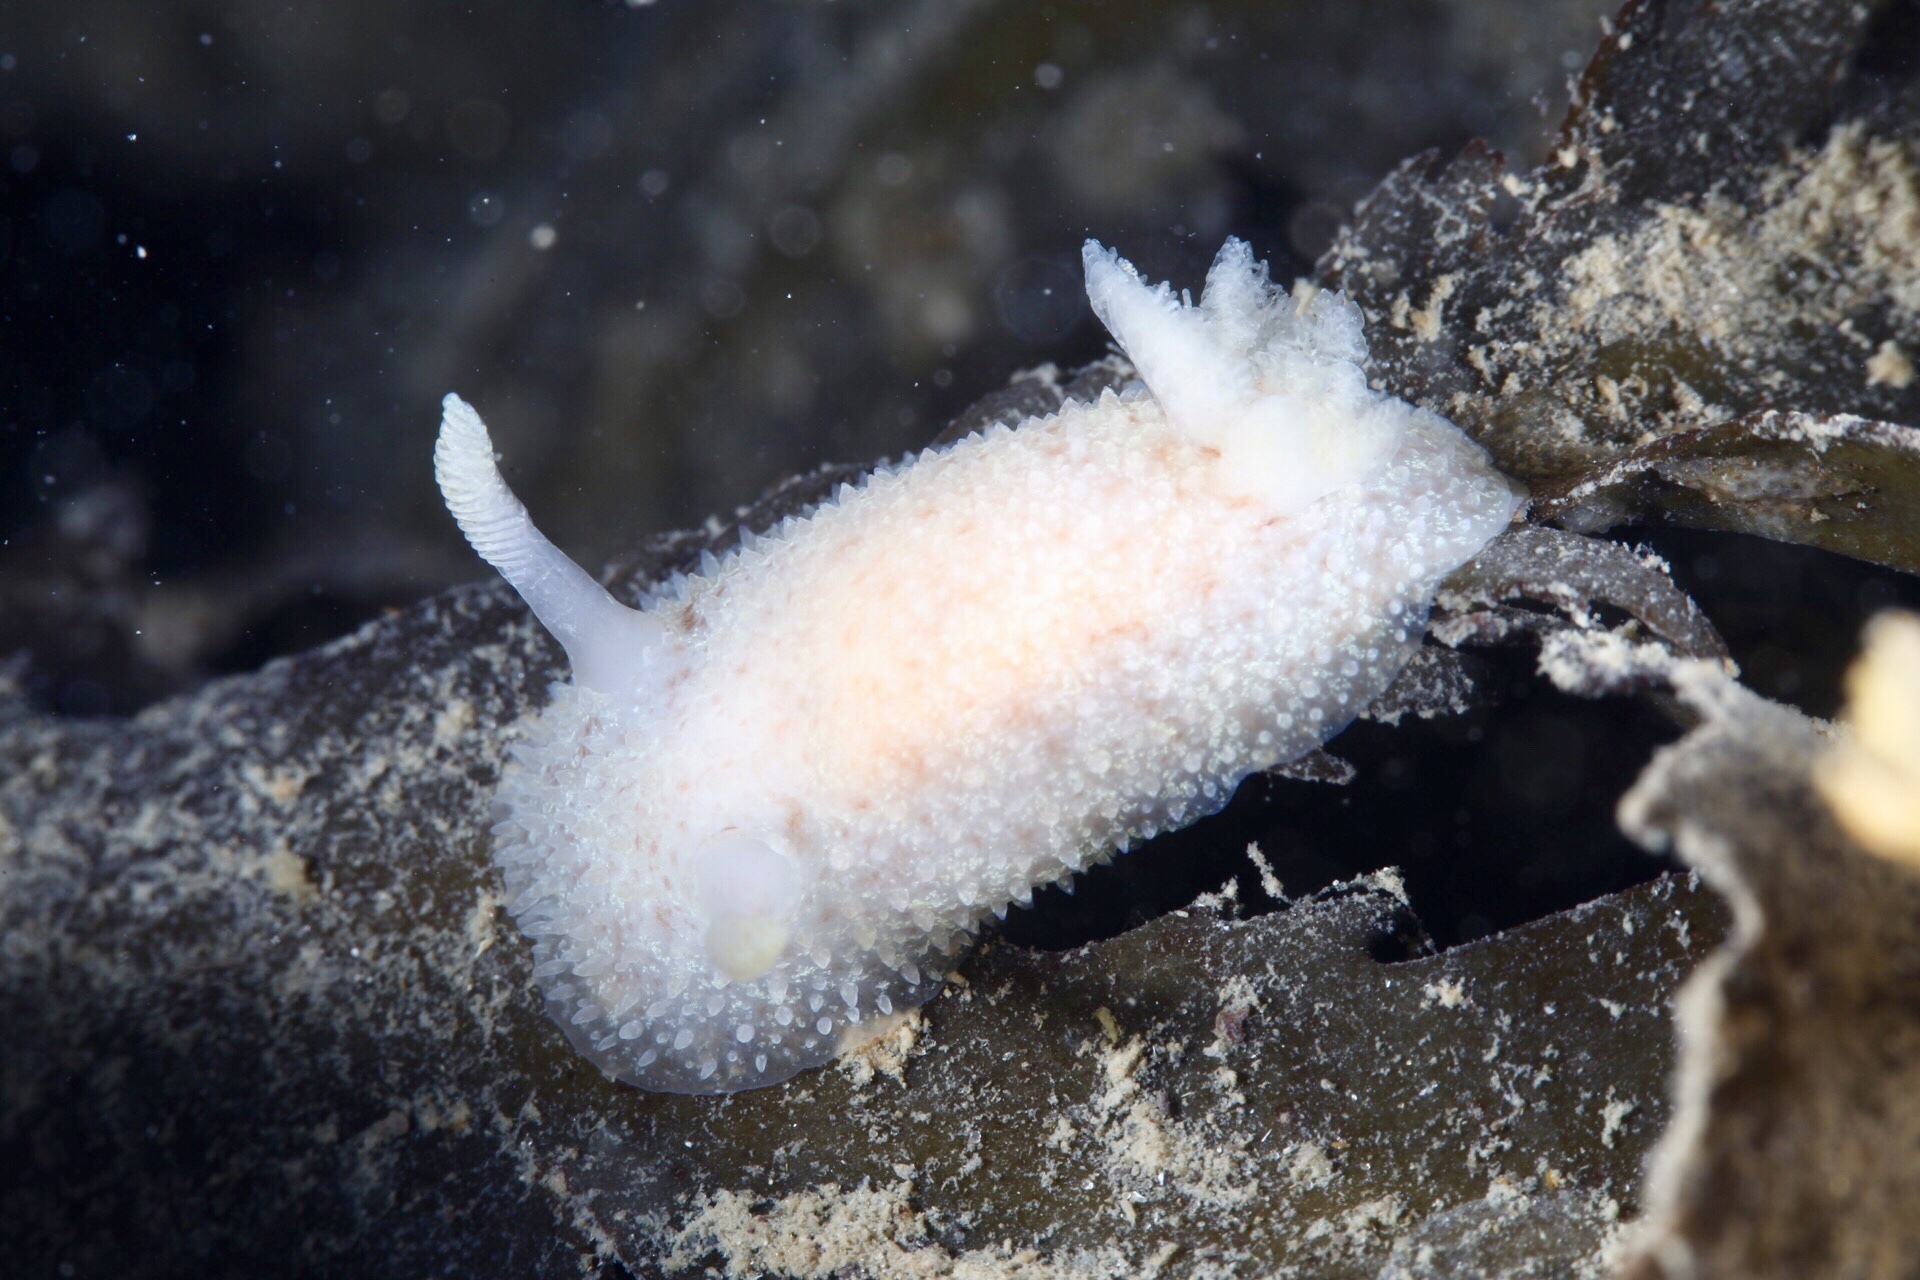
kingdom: Animalia
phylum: Mollusca
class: Gastropoda
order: Nudibranchia
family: Onchidorididae
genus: Acanthodoris
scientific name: Acanthodoris pilosa
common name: Hairy spiny doris
